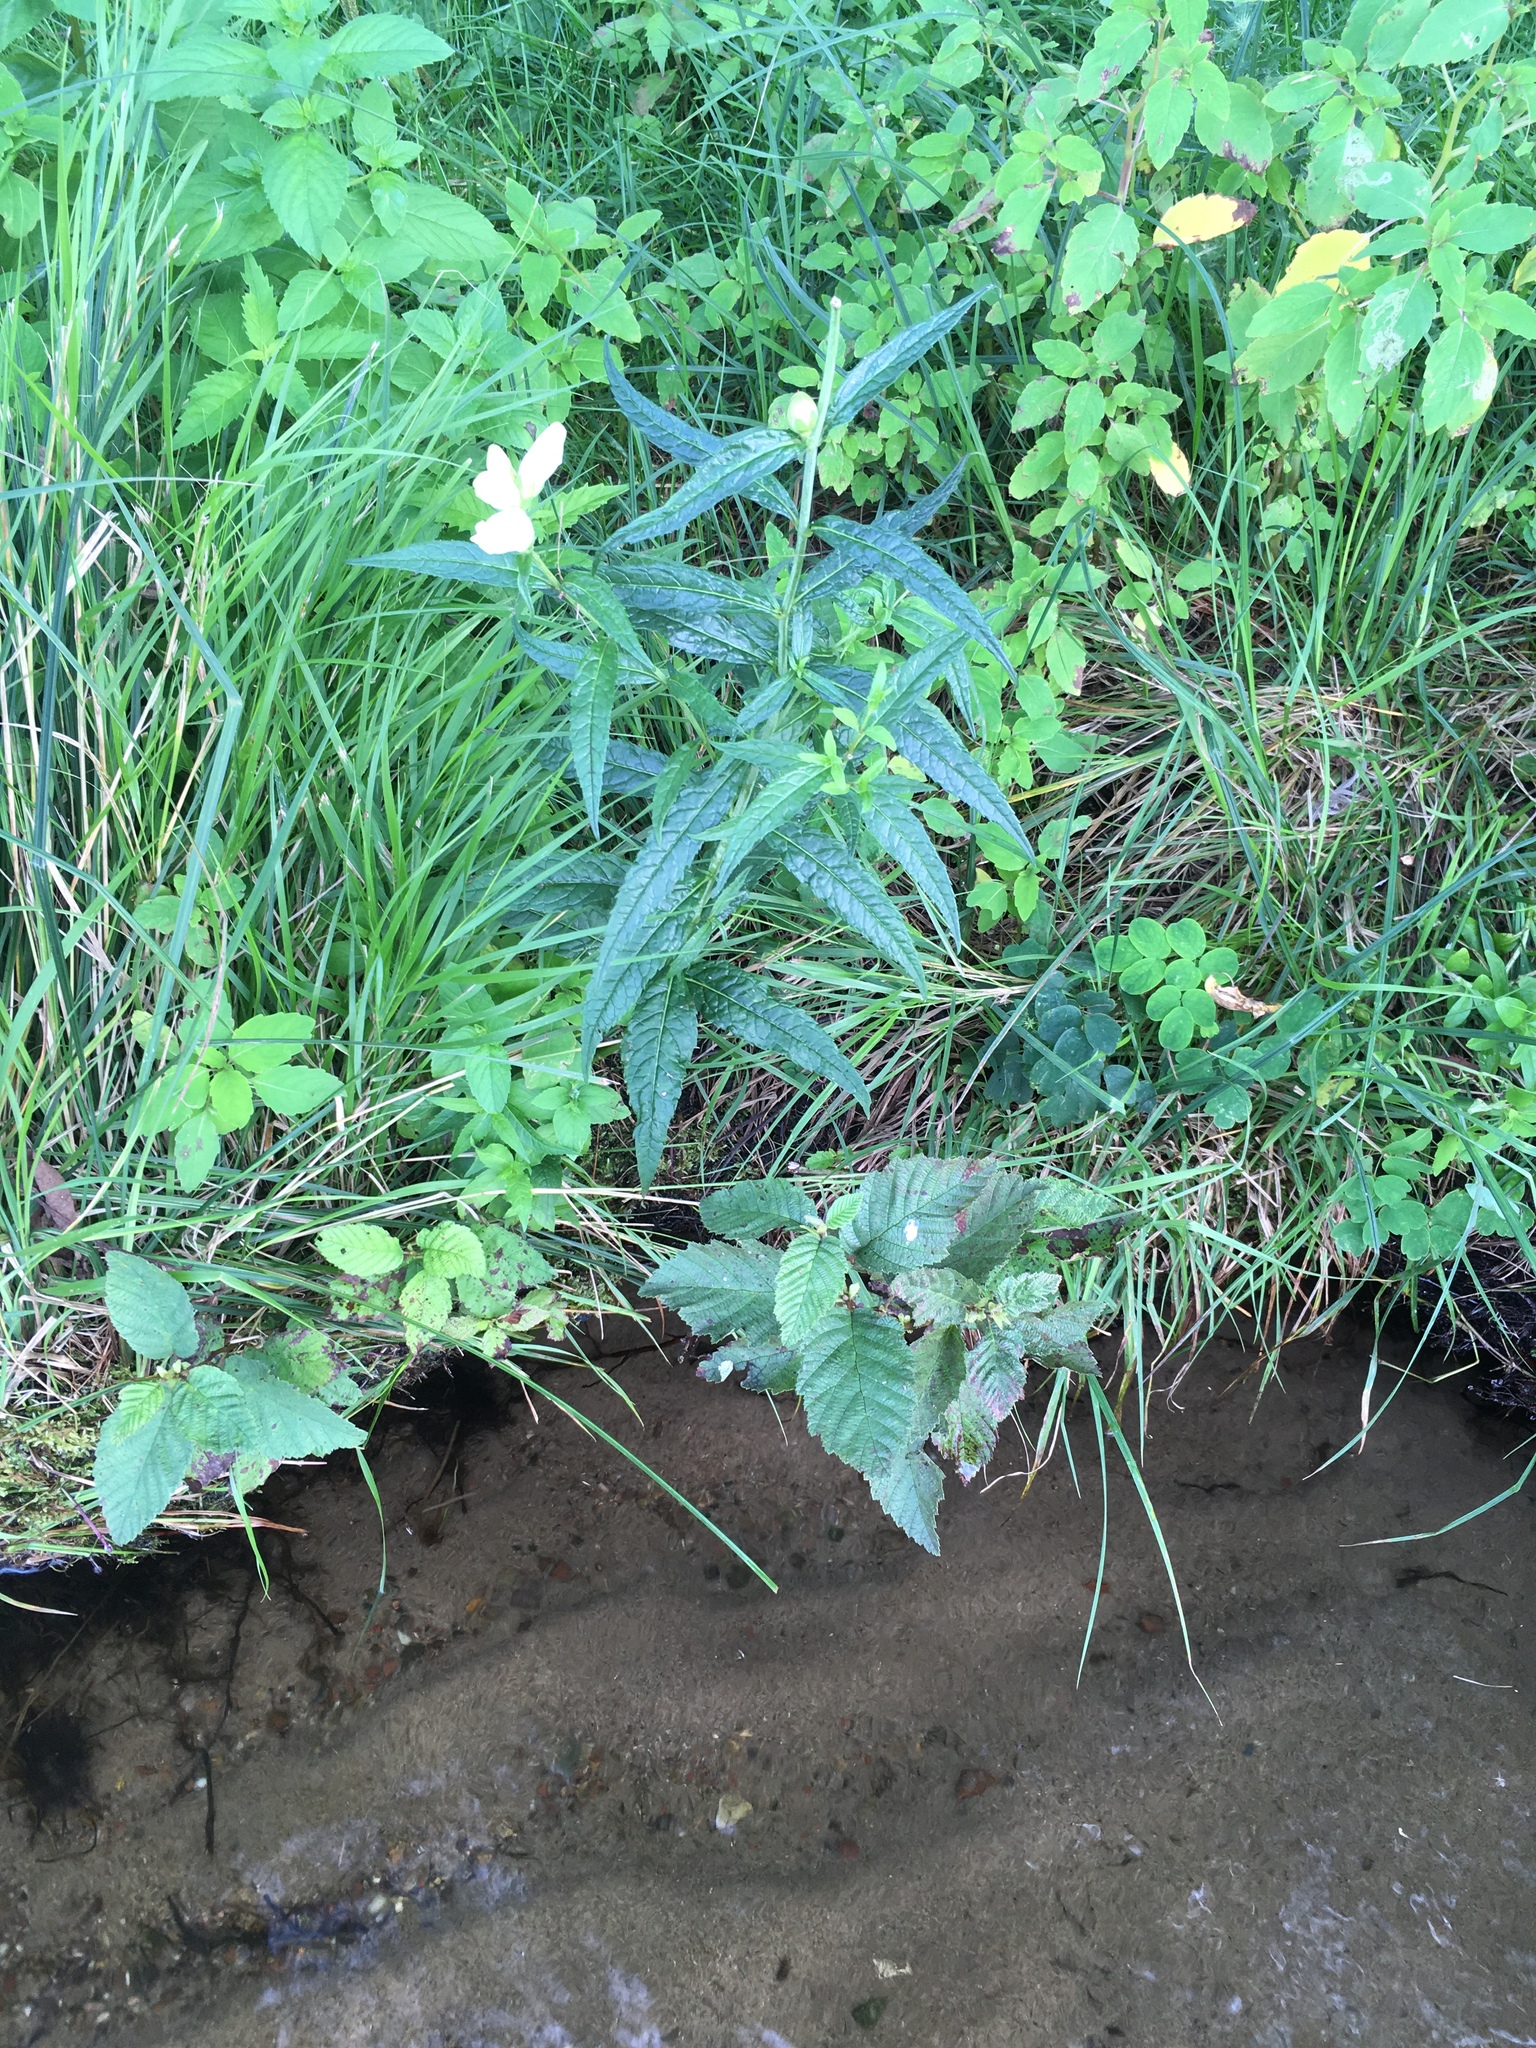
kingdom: Plantae
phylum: Tracheophyta
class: Magnoliopsida
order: Lamiales
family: Plantaginaceae
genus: Chelone
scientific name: Chelone glabra
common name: Snakehead
